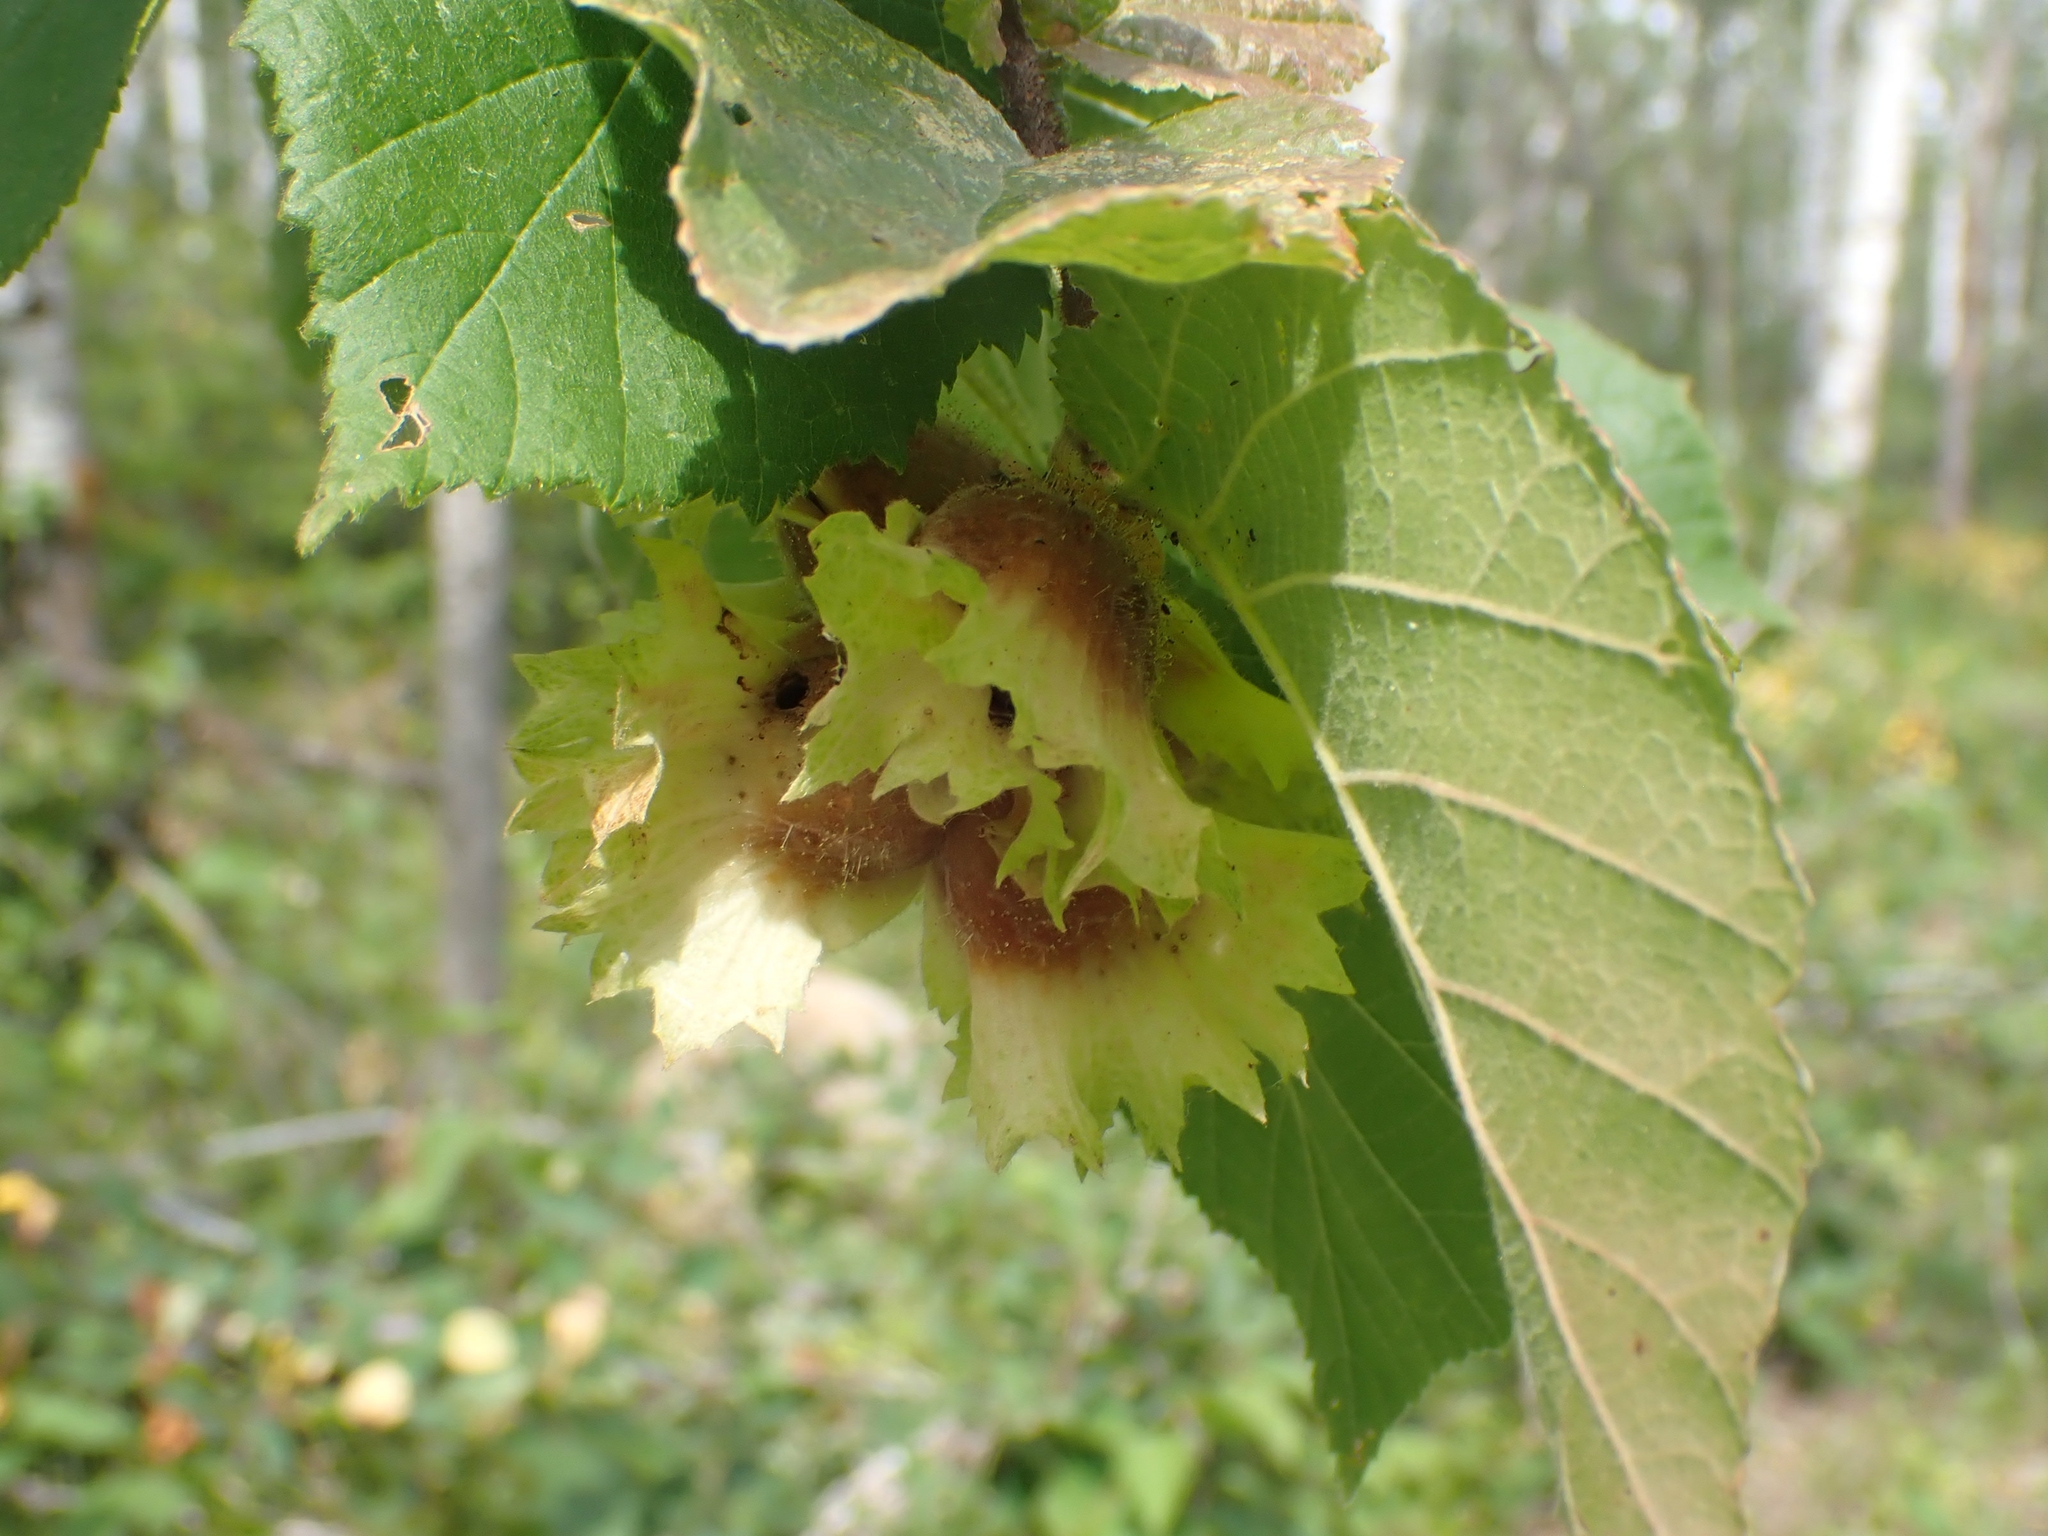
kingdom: Plantae
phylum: Tracheophyta
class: Magnoliopsida
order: Fagales
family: Betulaceae
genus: Corylus
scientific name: Corylus americana
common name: American hazel
